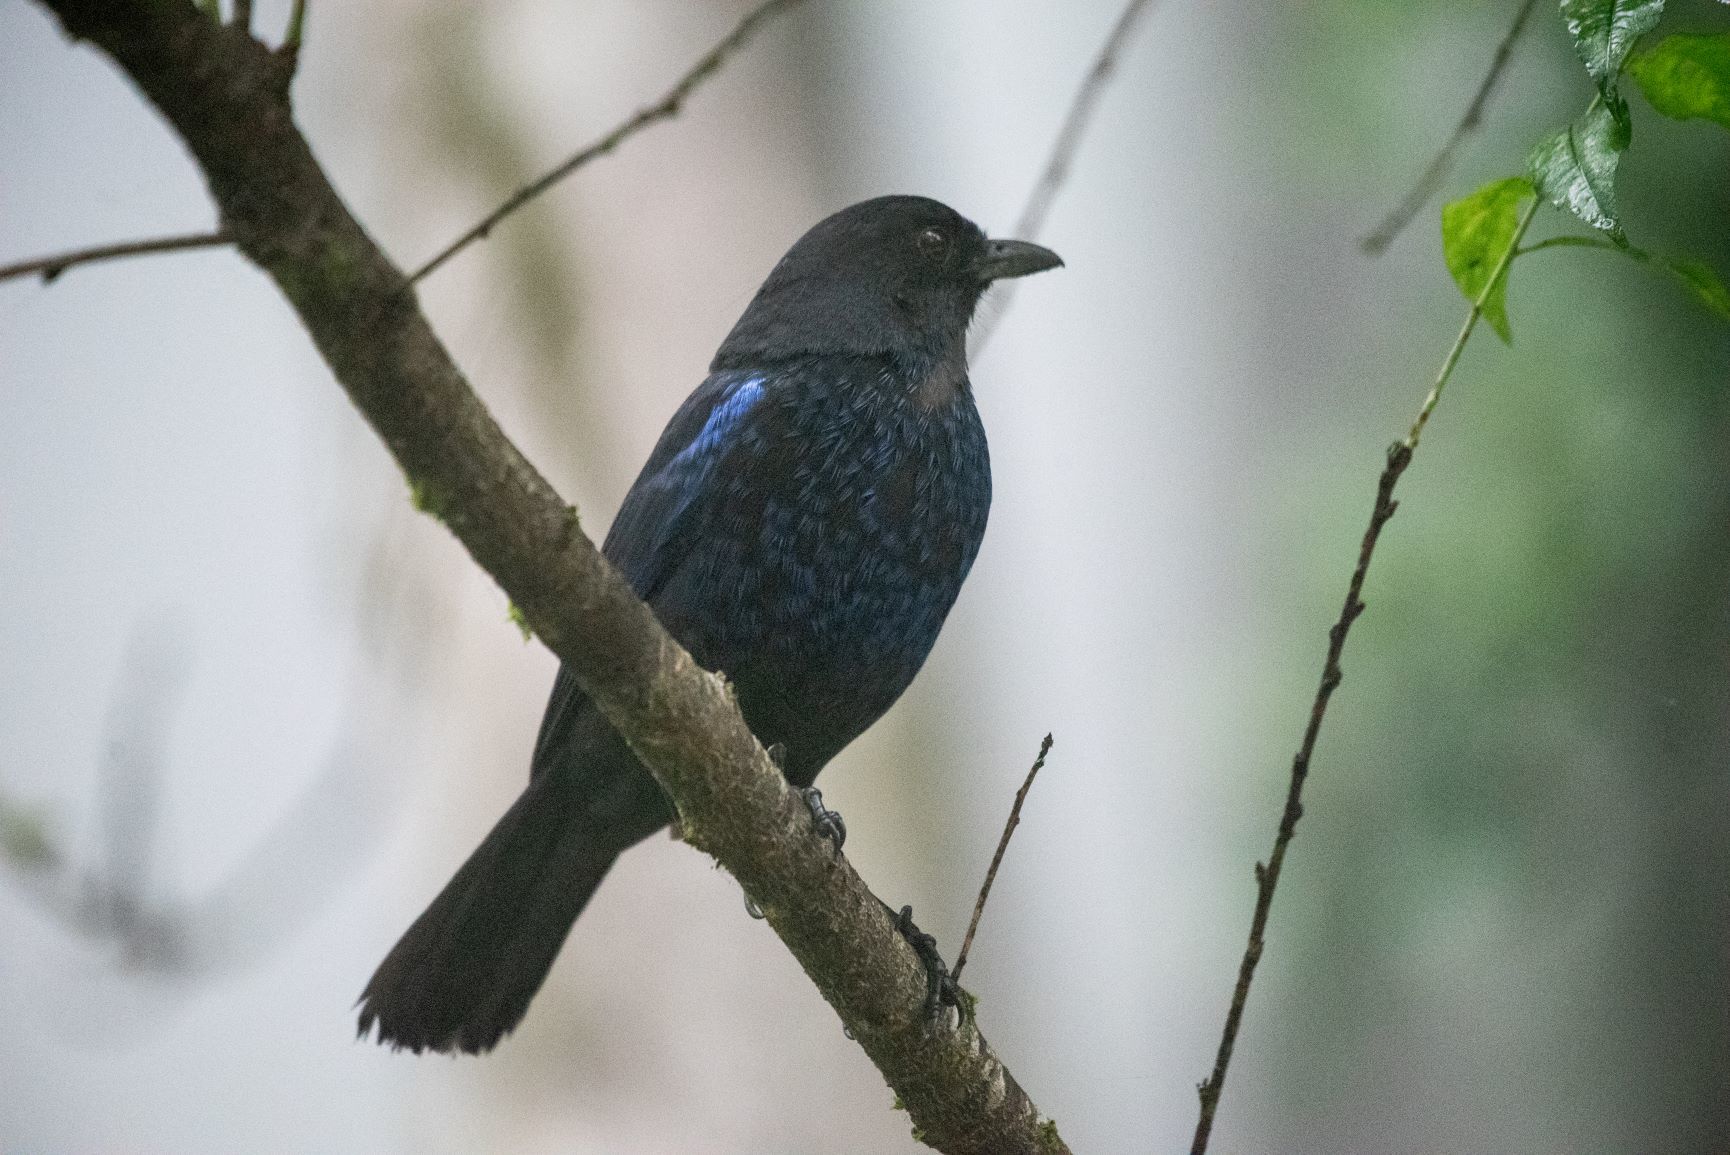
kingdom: Animalia
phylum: Chordata
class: Aves
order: Passeriformes
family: Muscicapidae
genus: Myophonus
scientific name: Myophonus insularis
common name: Taiwan whistling-thrush
